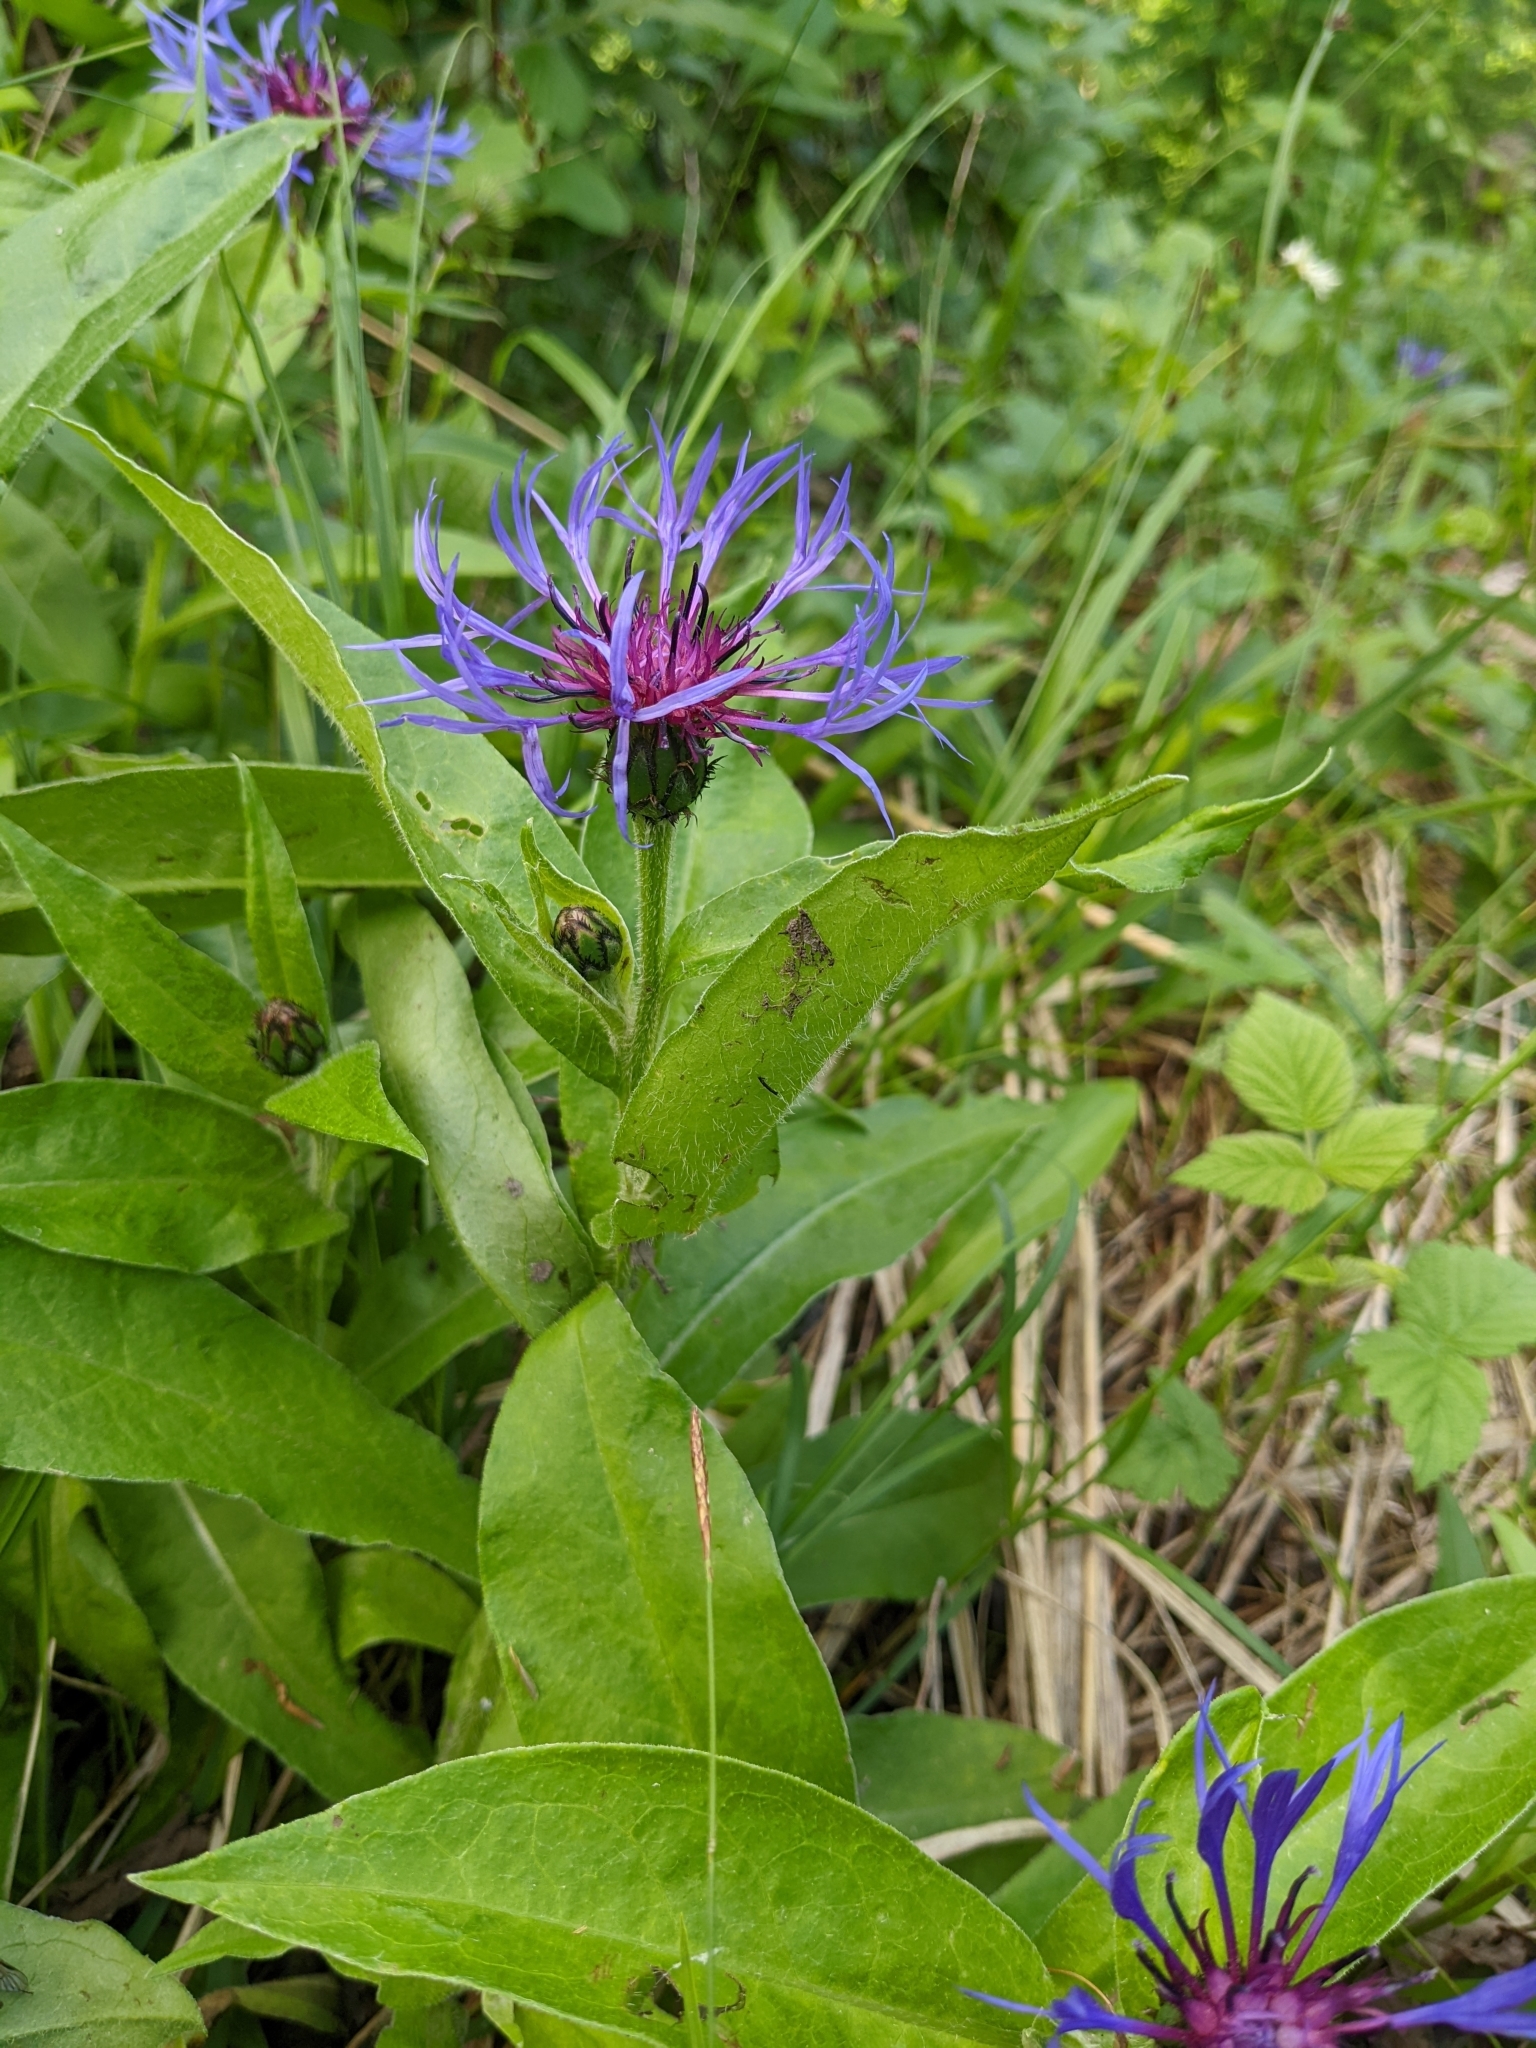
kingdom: Plantae
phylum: Tracheophyta
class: Magnoliopsida
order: Asterales
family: Asteraceae
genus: Centaurea
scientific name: Centaurea montana
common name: Perennial cornflower
